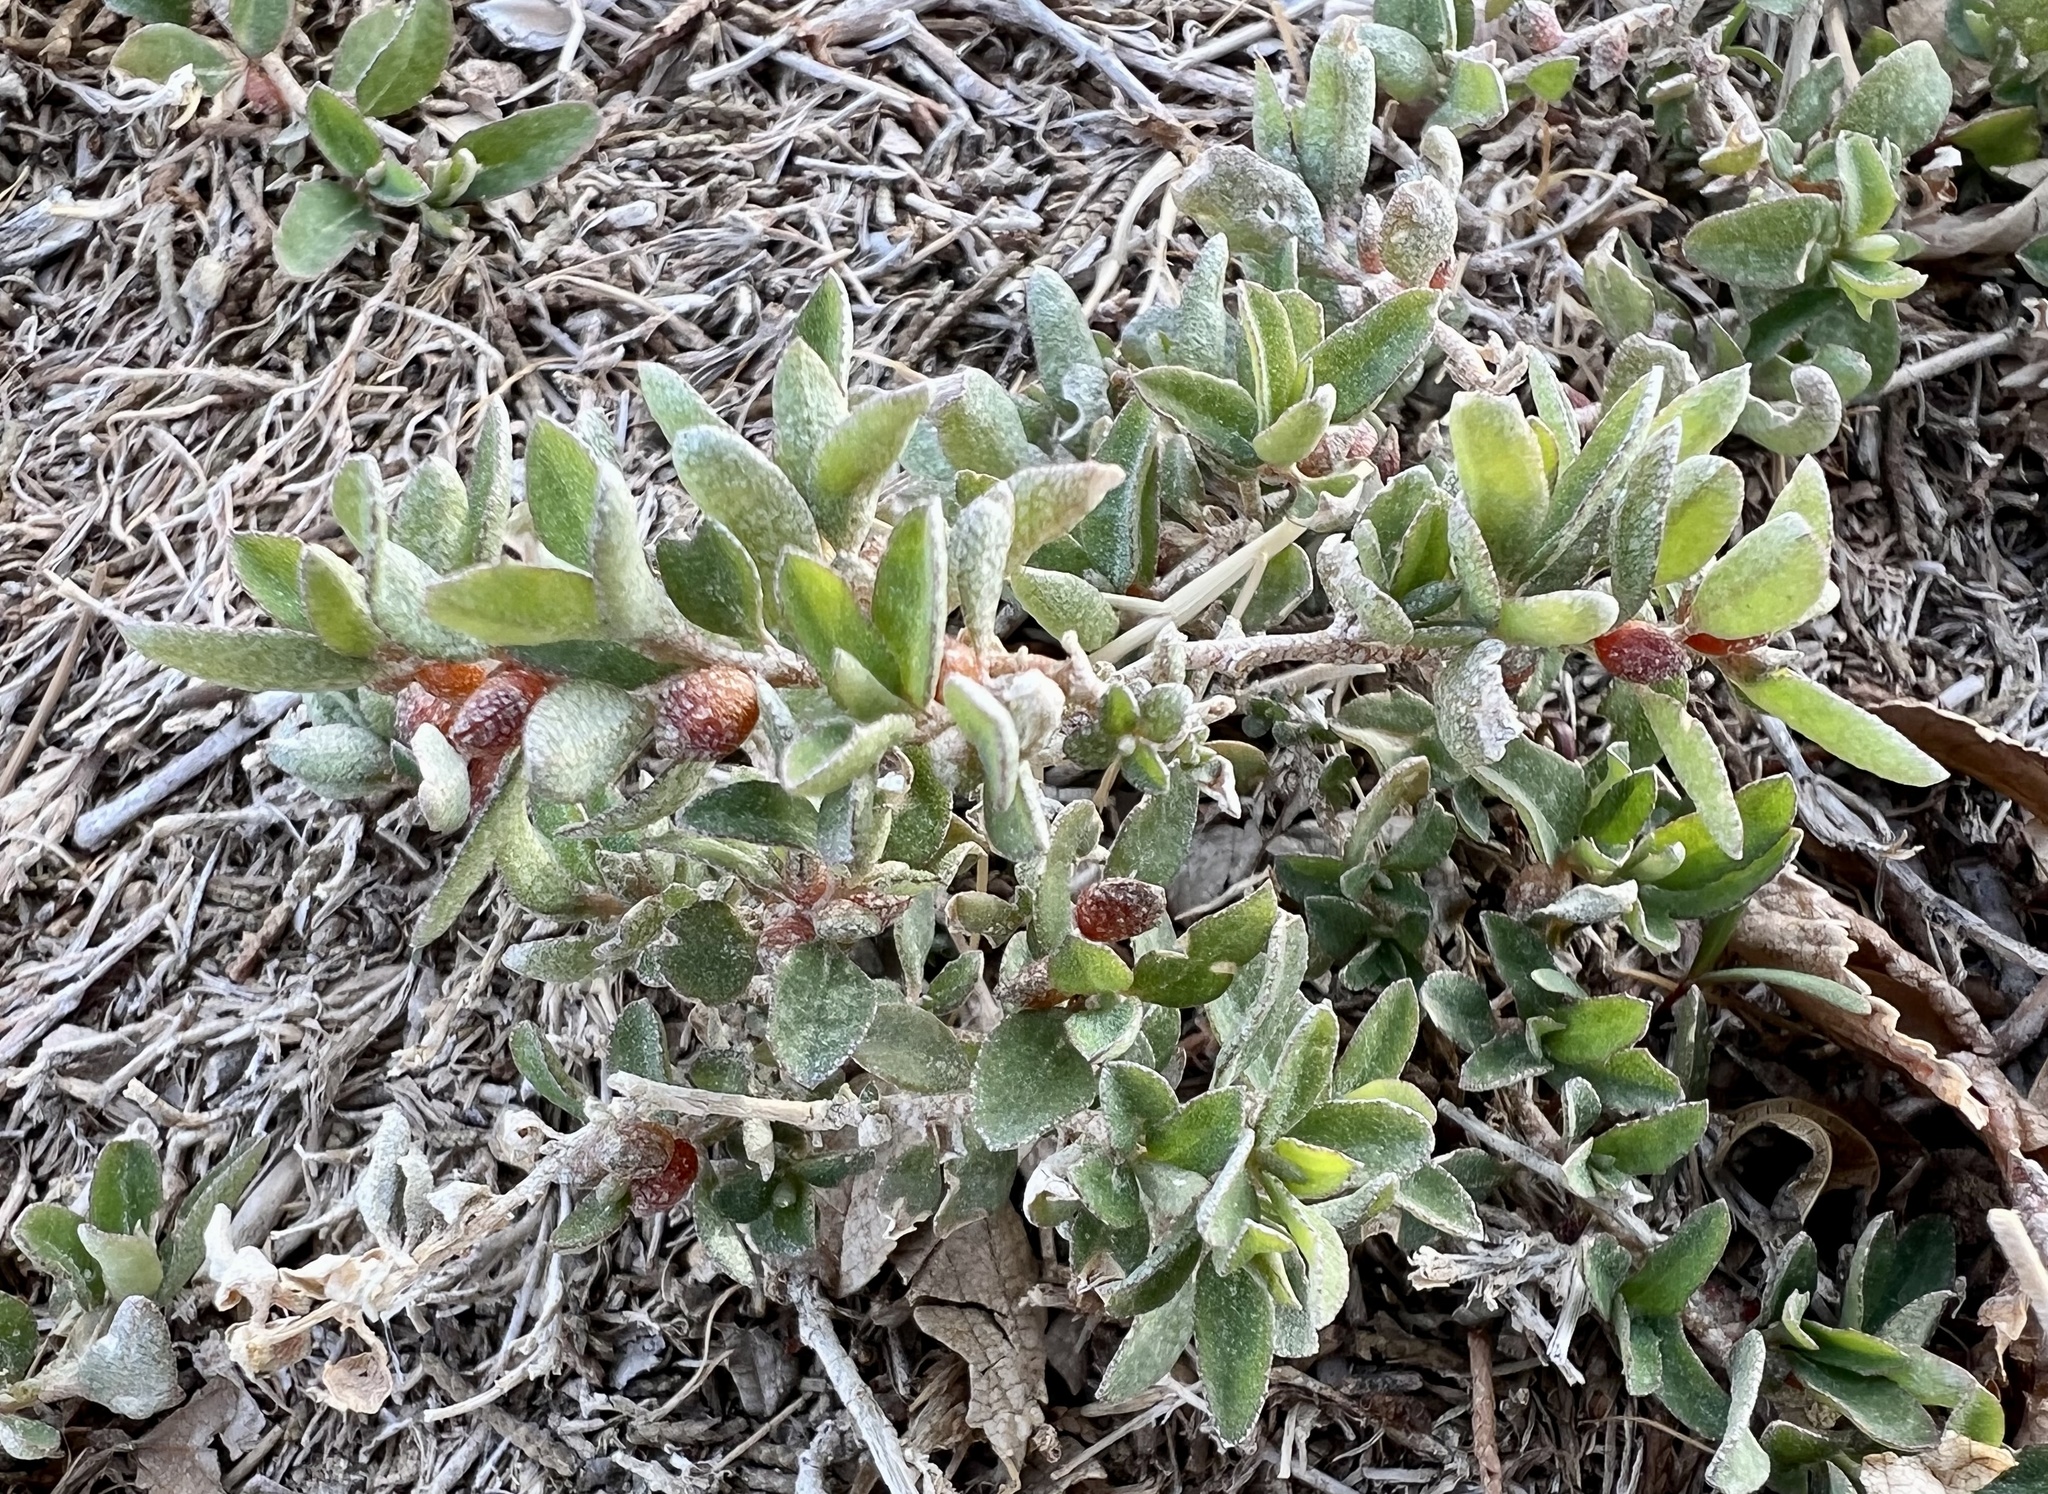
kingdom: Plantae
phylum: Tracheophyta
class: Magnoliopsida
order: Caryophyllales
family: Amaranthaceae
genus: Atriplex
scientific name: Atriplex semibaccata
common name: Australian saltbush
